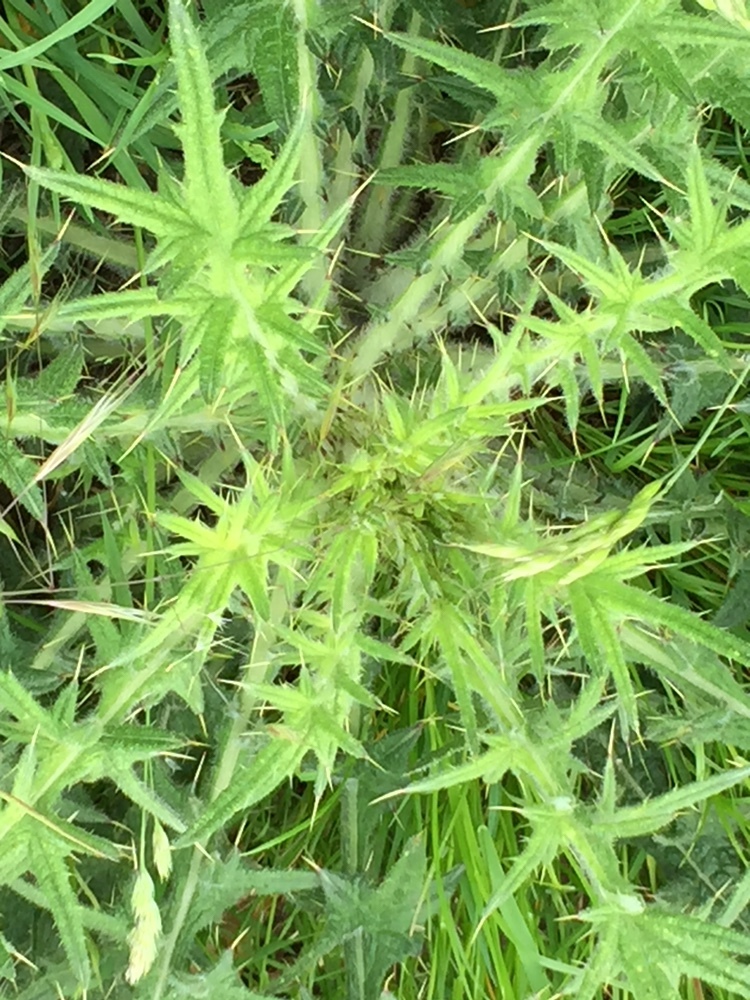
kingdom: Plantae
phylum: Tracheophyta
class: Magnoliopsida
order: Asterales
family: Asteraceae
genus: Cirsium
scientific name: Cirsium vulgare
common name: Bull thistle
